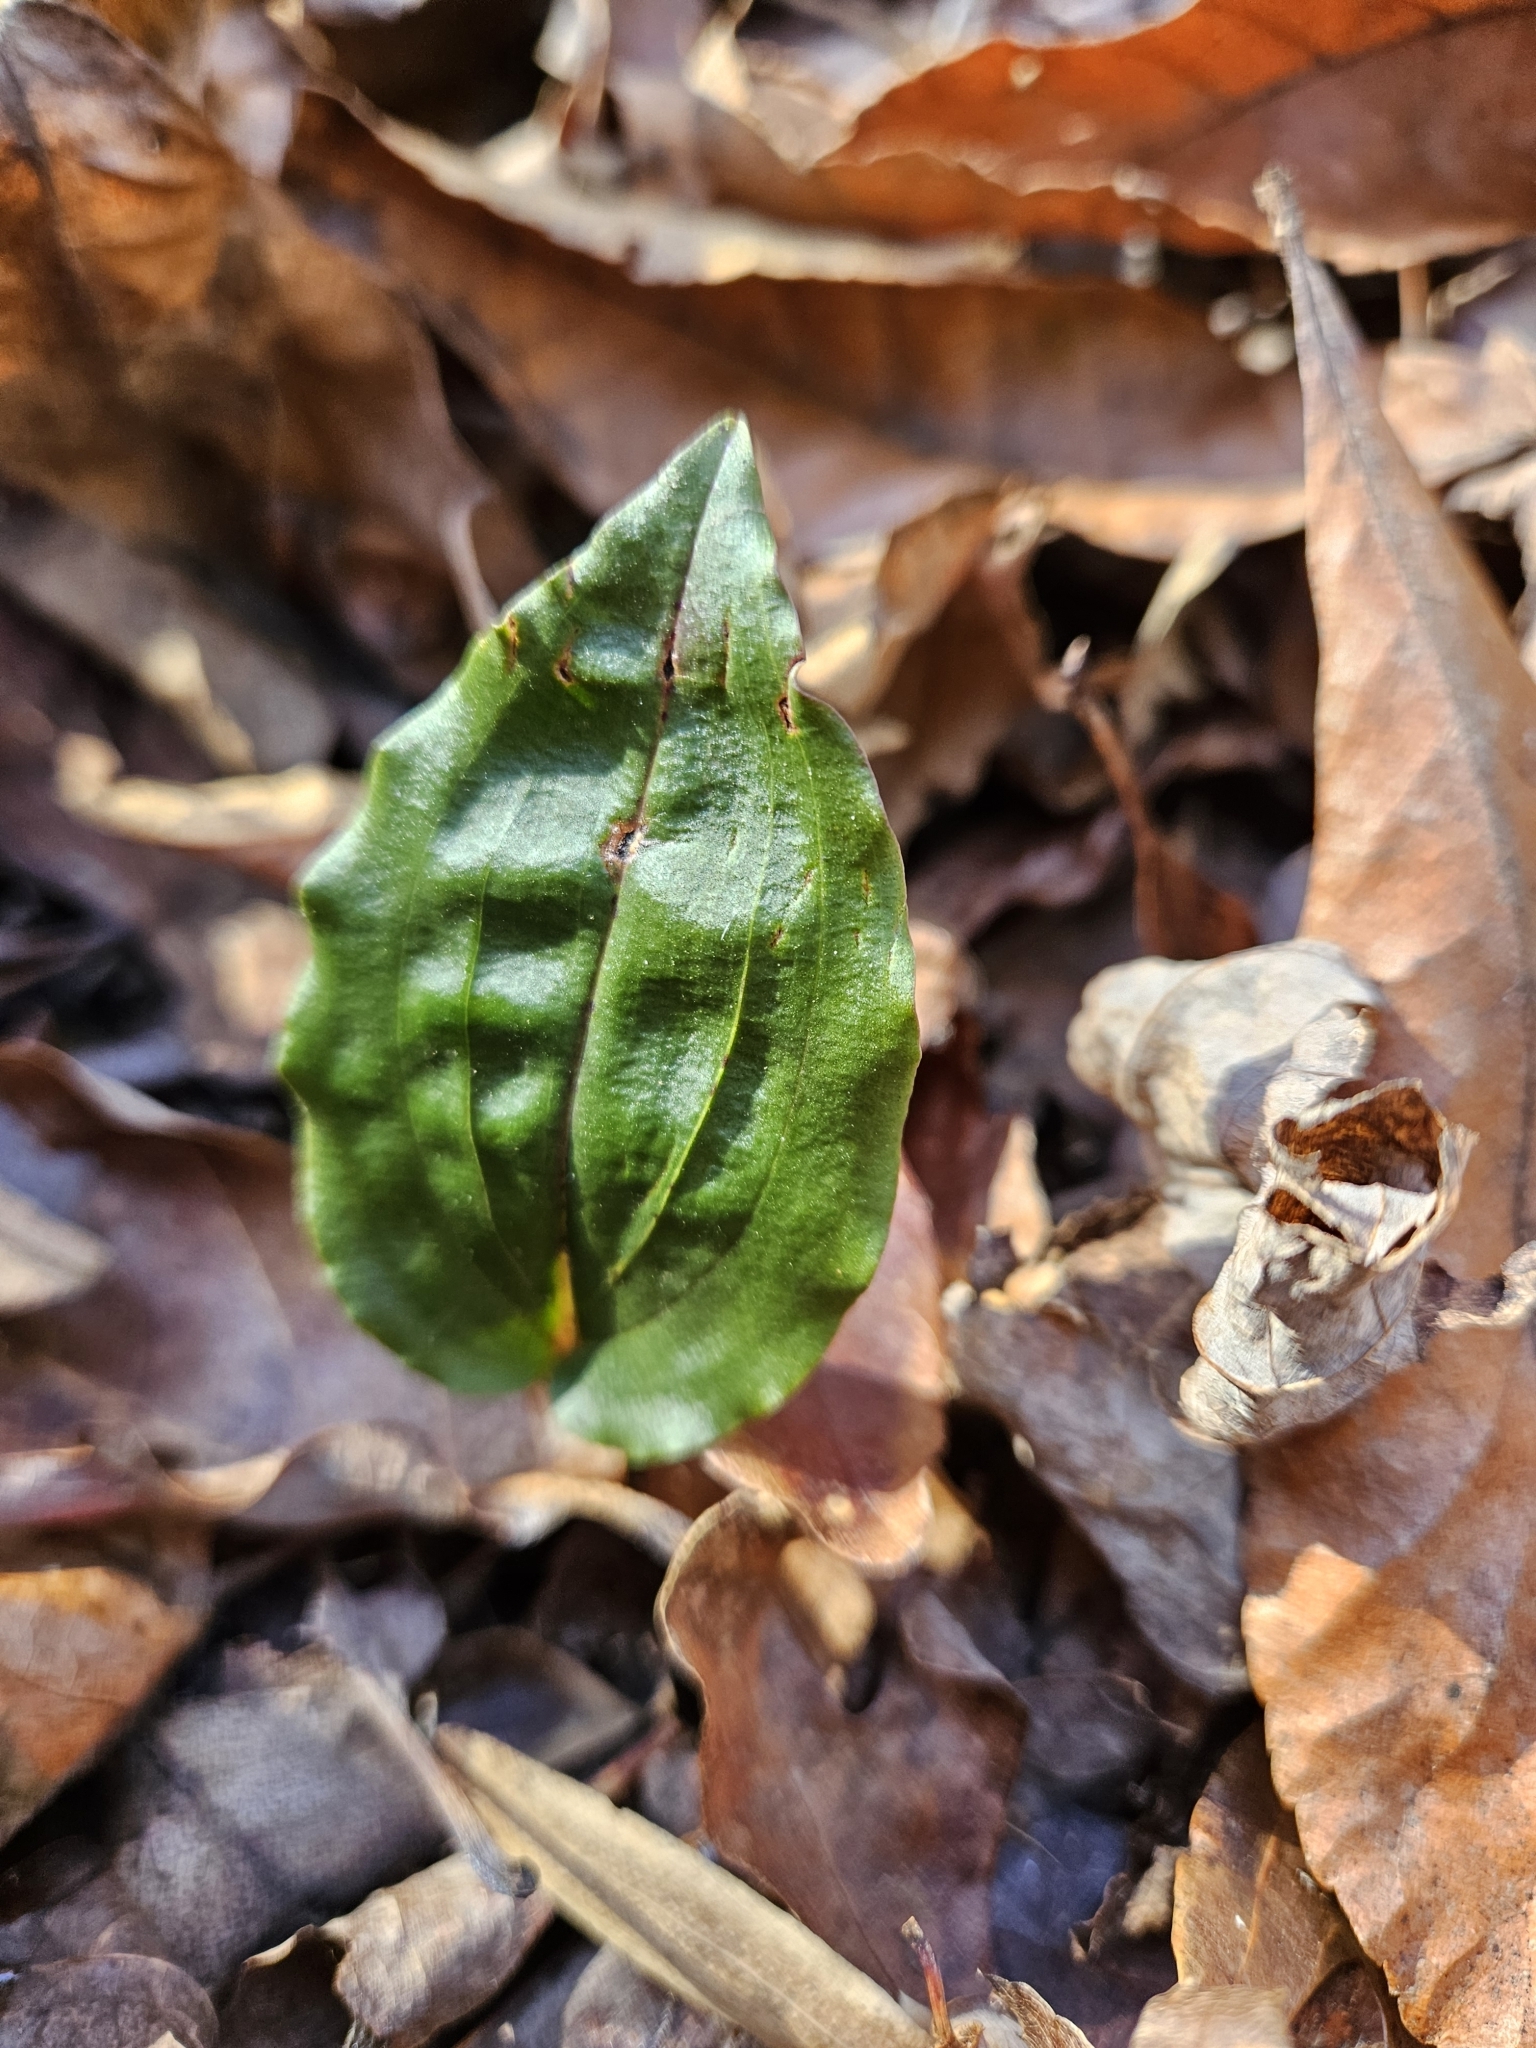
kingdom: Plantae
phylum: Tracheophyta
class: Liliopsida
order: Asparagales
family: Orchidaceae
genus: Tipularia
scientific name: Tipularia discolor
